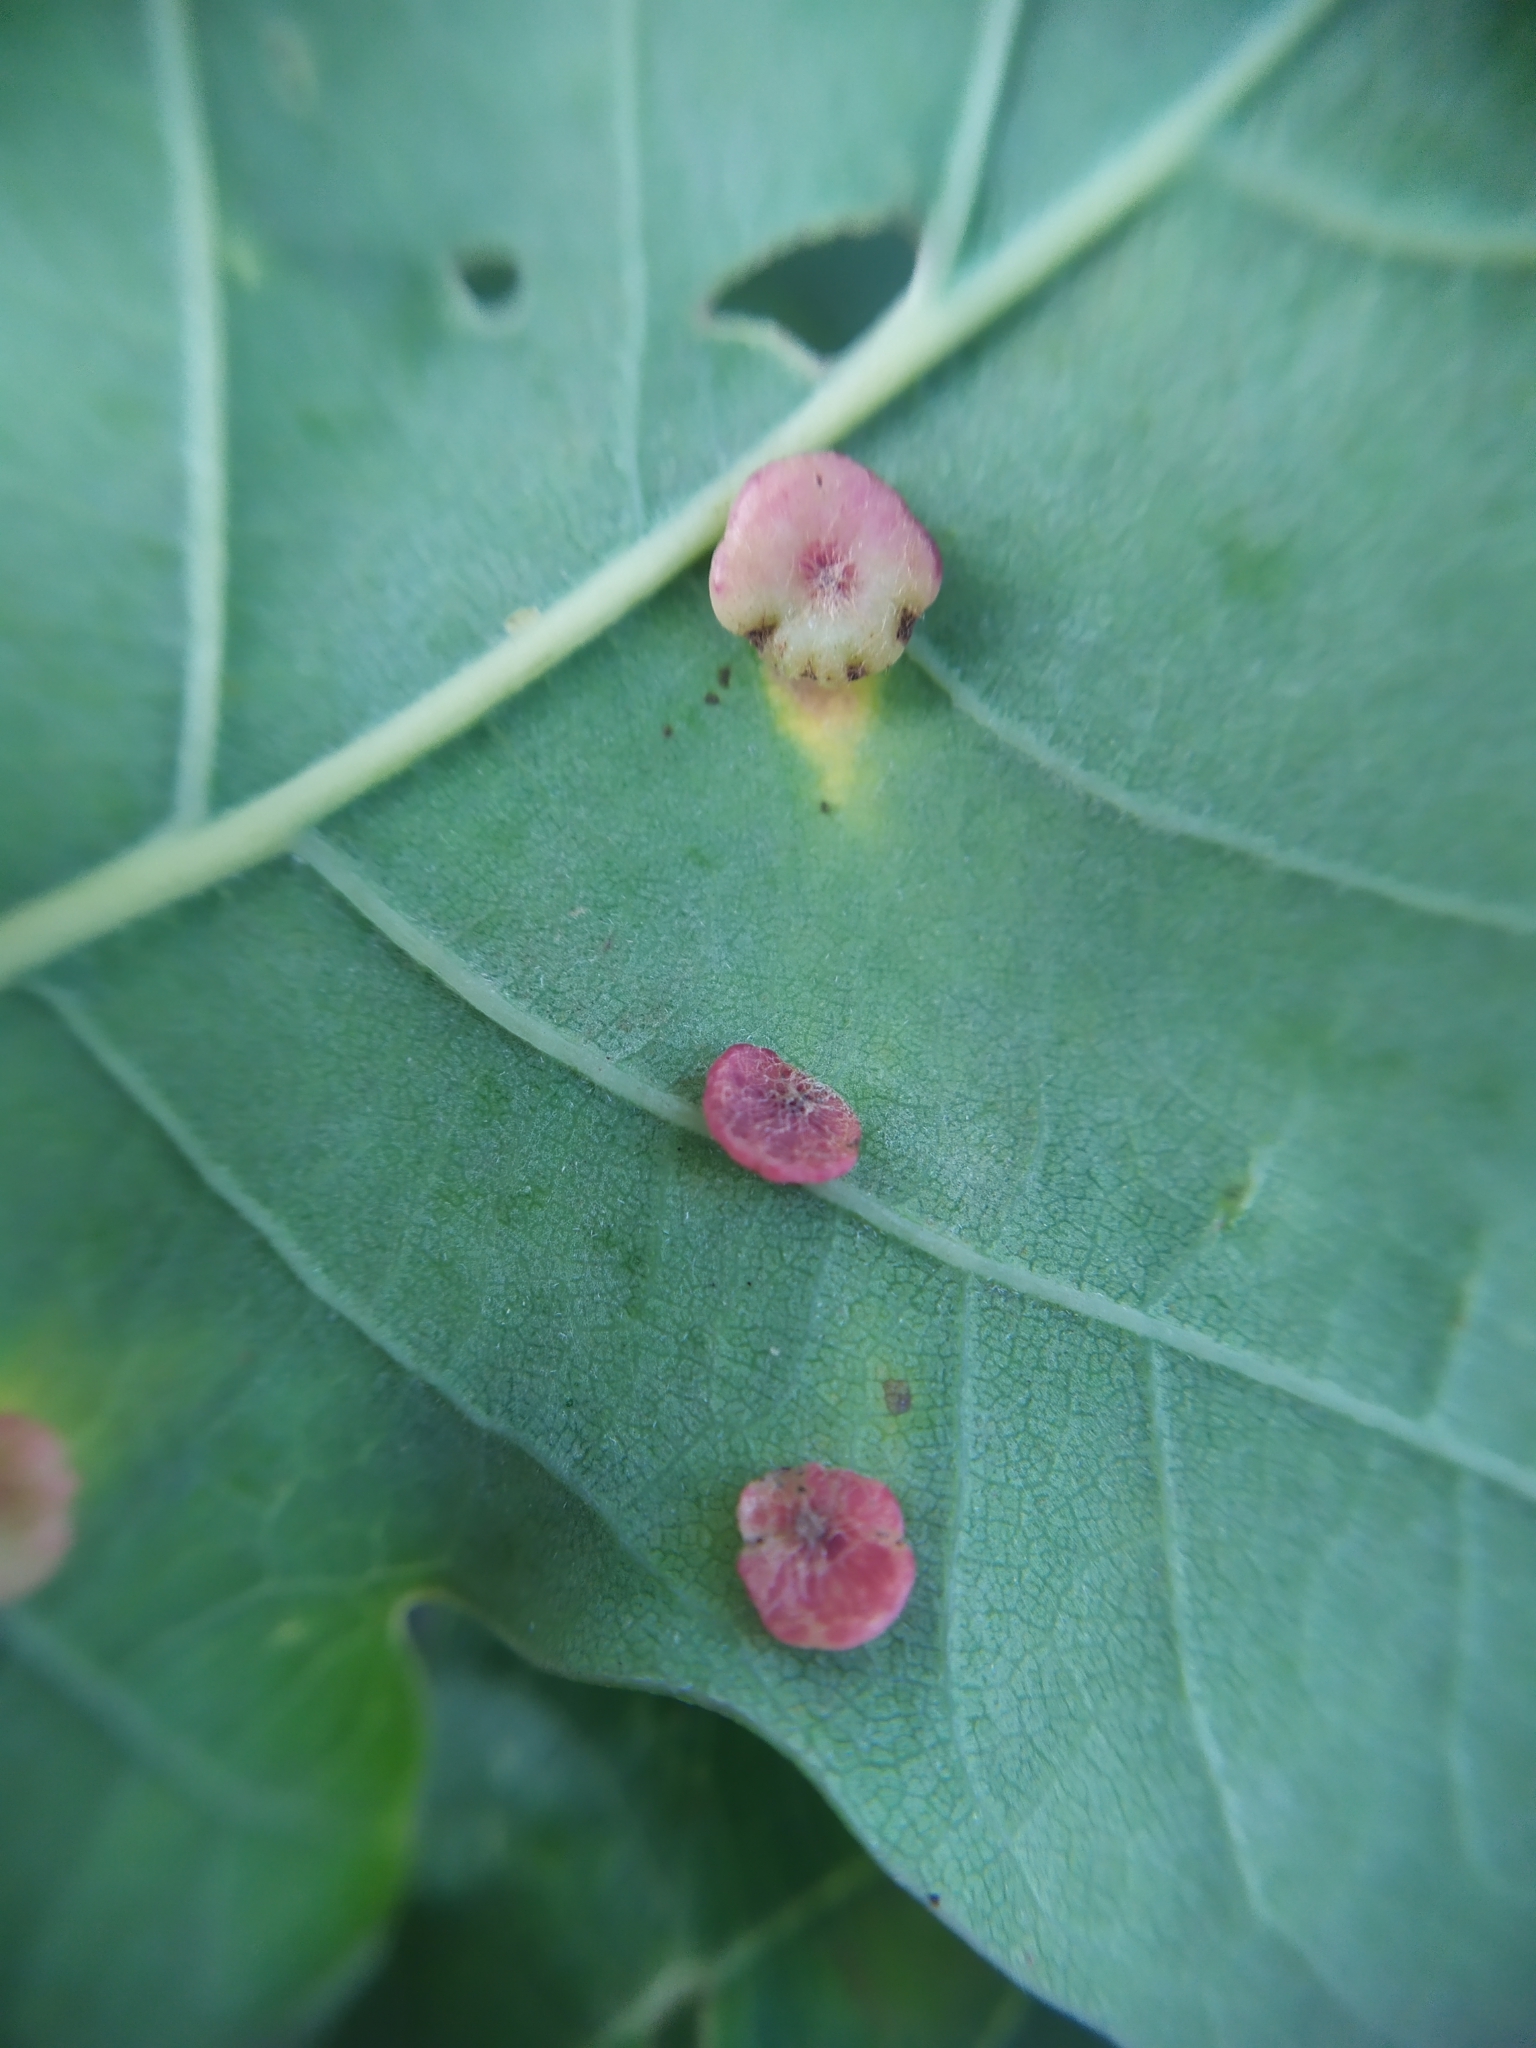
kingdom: Animalia
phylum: Arthropoda
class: Insecta
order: Hymenoptera
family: Cynipidae
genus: Neuroterus
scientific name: Neuroterus albipes
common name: Smooth spangle gall
